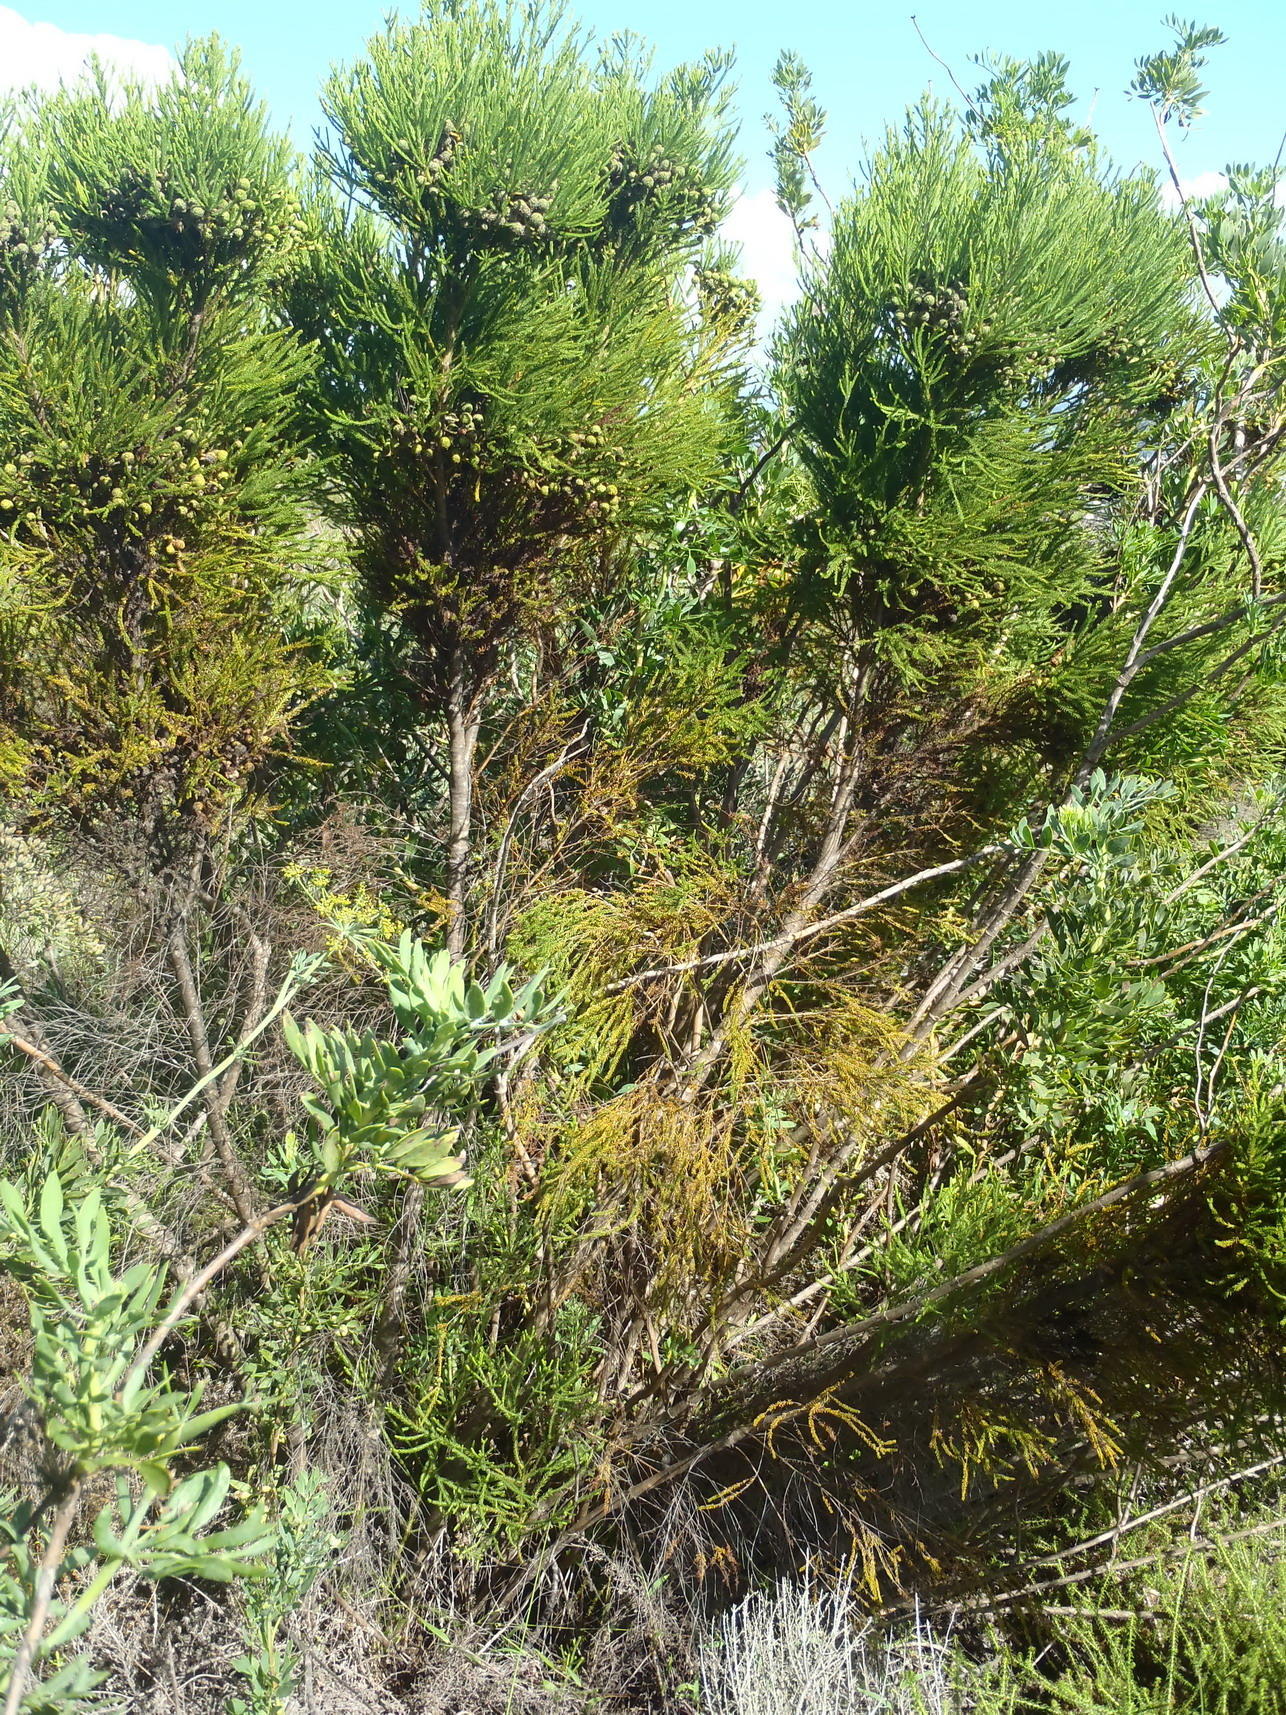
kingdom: Plantae
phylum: Tracheophyta
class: Magnoliopsida
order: Bruniales
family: Bruniaceae
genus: Berzelia
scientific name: Berzelia intermedia
